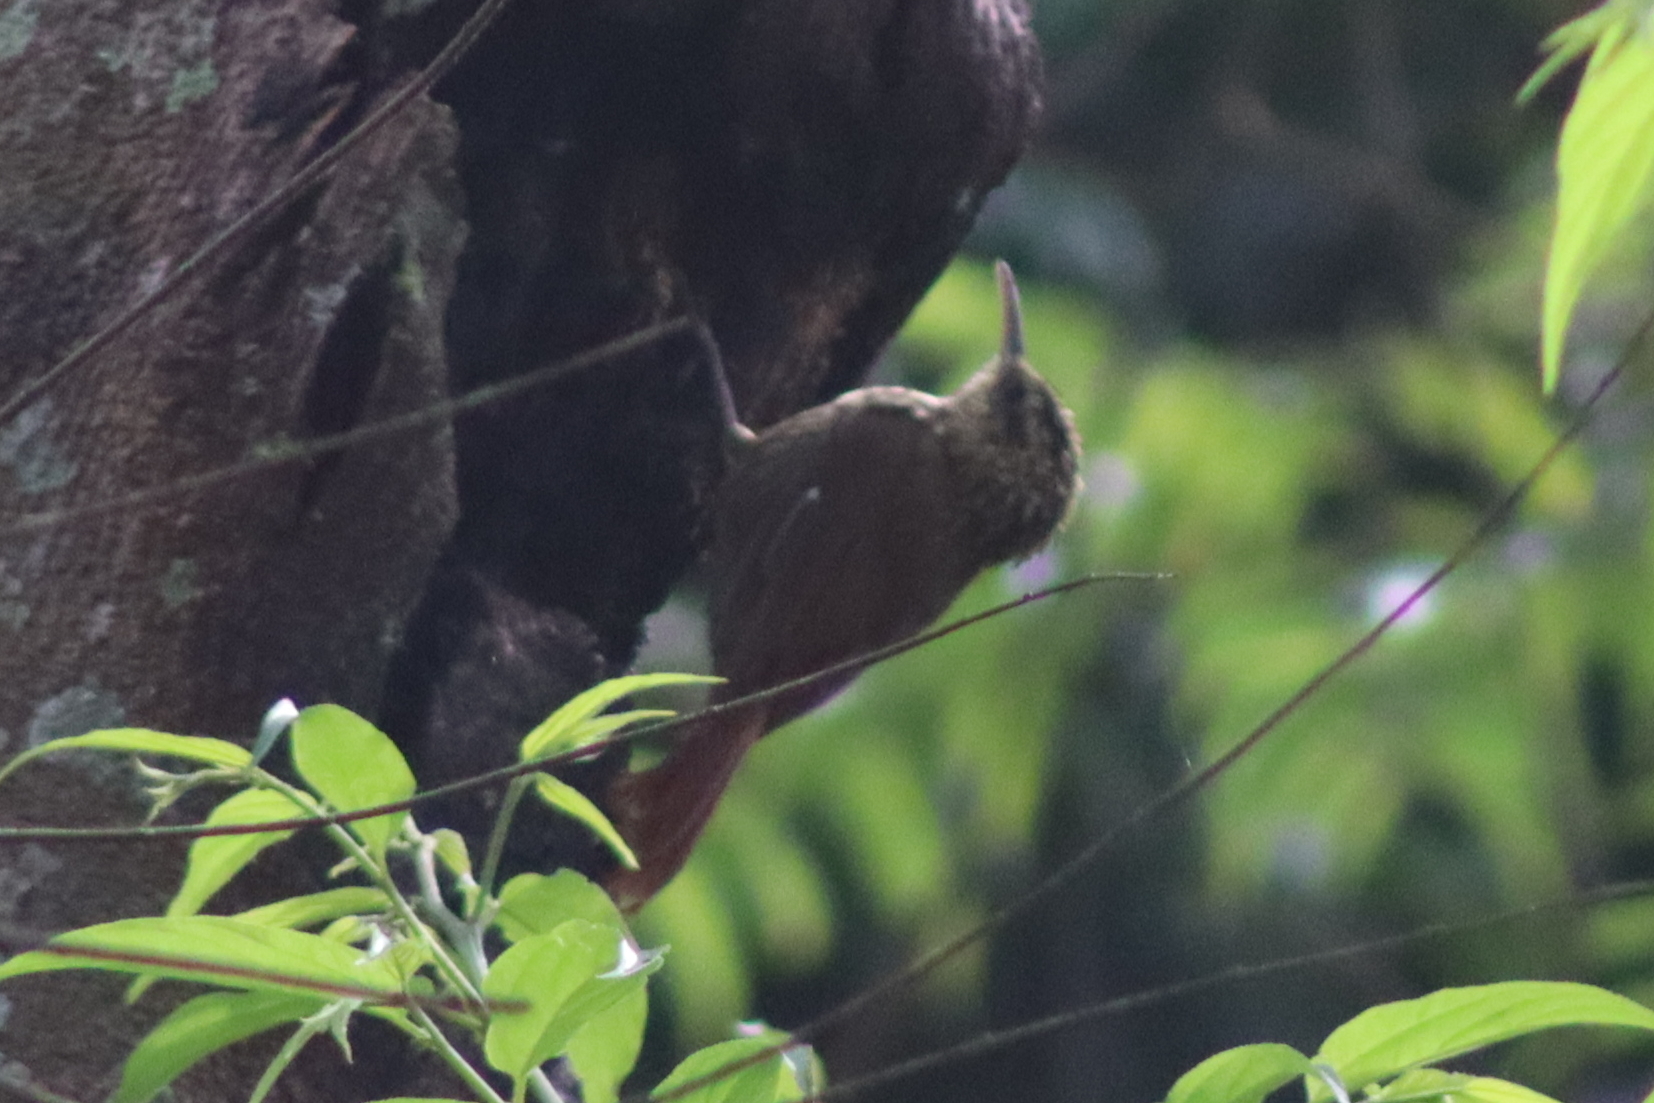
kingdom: Animalia
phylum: Chordata
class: Aves
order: Passeriformes
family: Furnariidae
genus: Xiphorhynchus
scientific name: Xiphorhynchus fuscus
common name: Lesser woodcreeper
